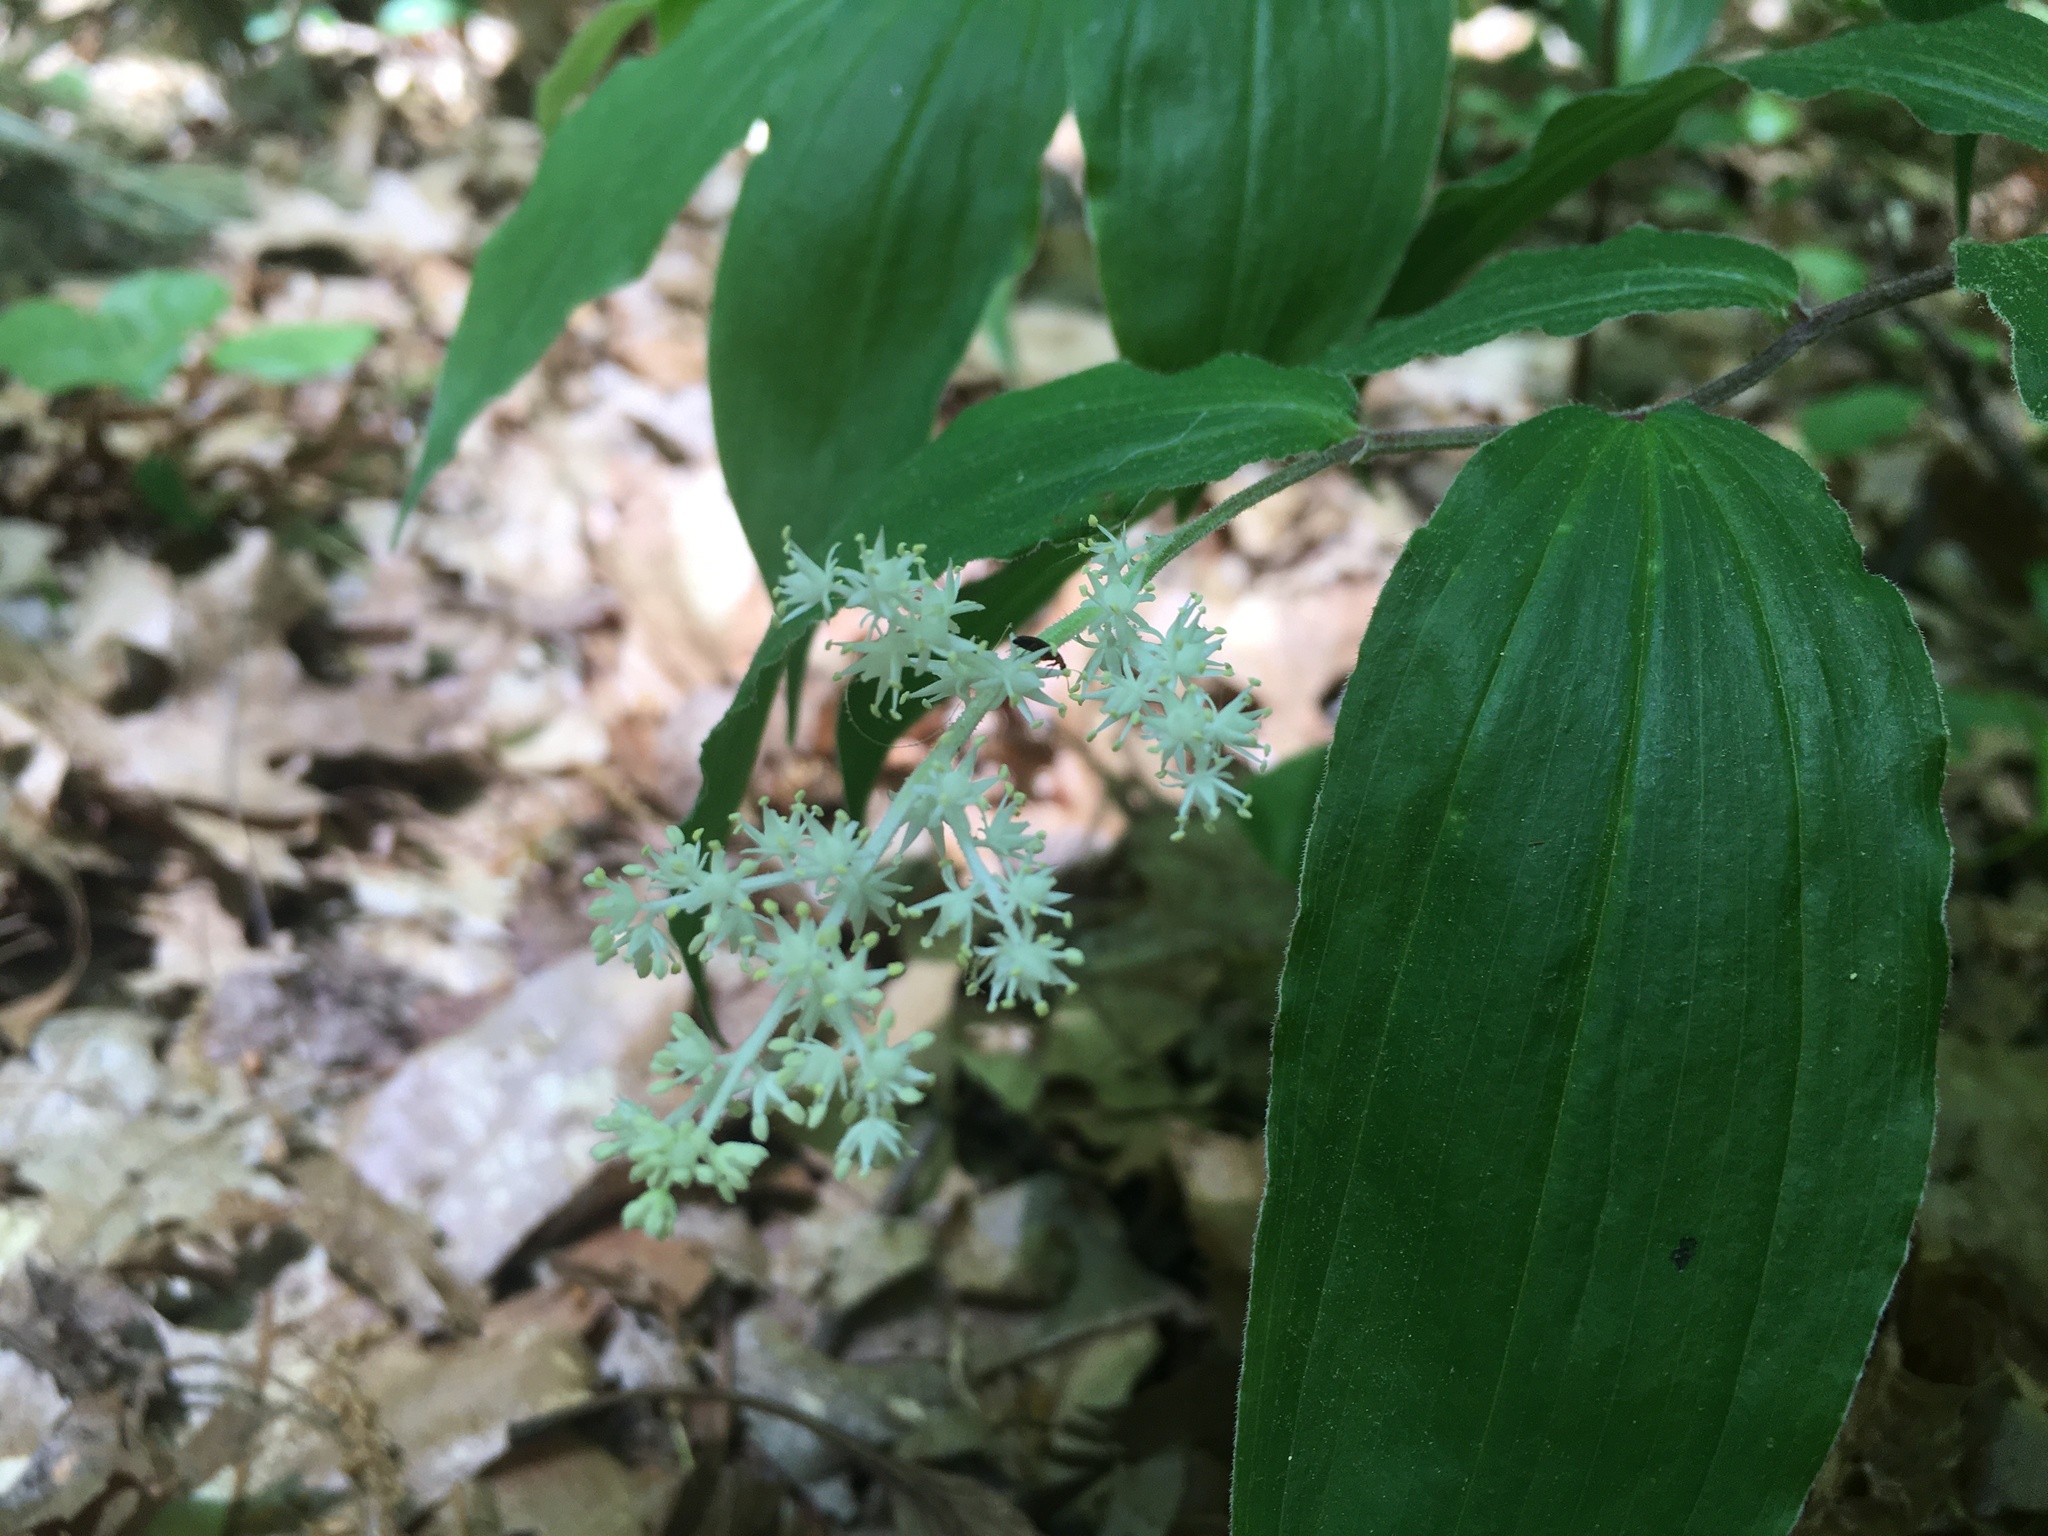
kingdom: Plantae
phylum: Tracheophyta
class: Liliopsida
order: Asparagales
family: Asparagaceae
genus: Maianthemum
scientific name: Maianthemum racemosum
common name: False spikenard
